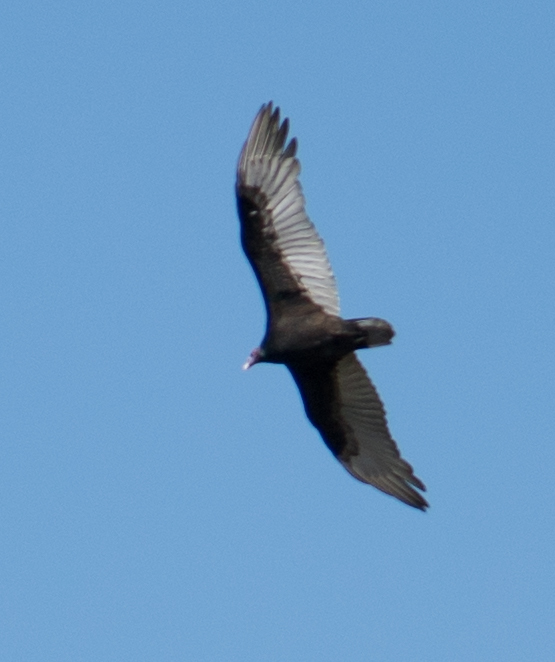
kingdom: Animalia
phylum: Chordata
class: Aves
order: Accipitriformes
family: Cathartidae
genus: Cathartes
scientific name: Cathartes aura
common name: Turkey vulture
